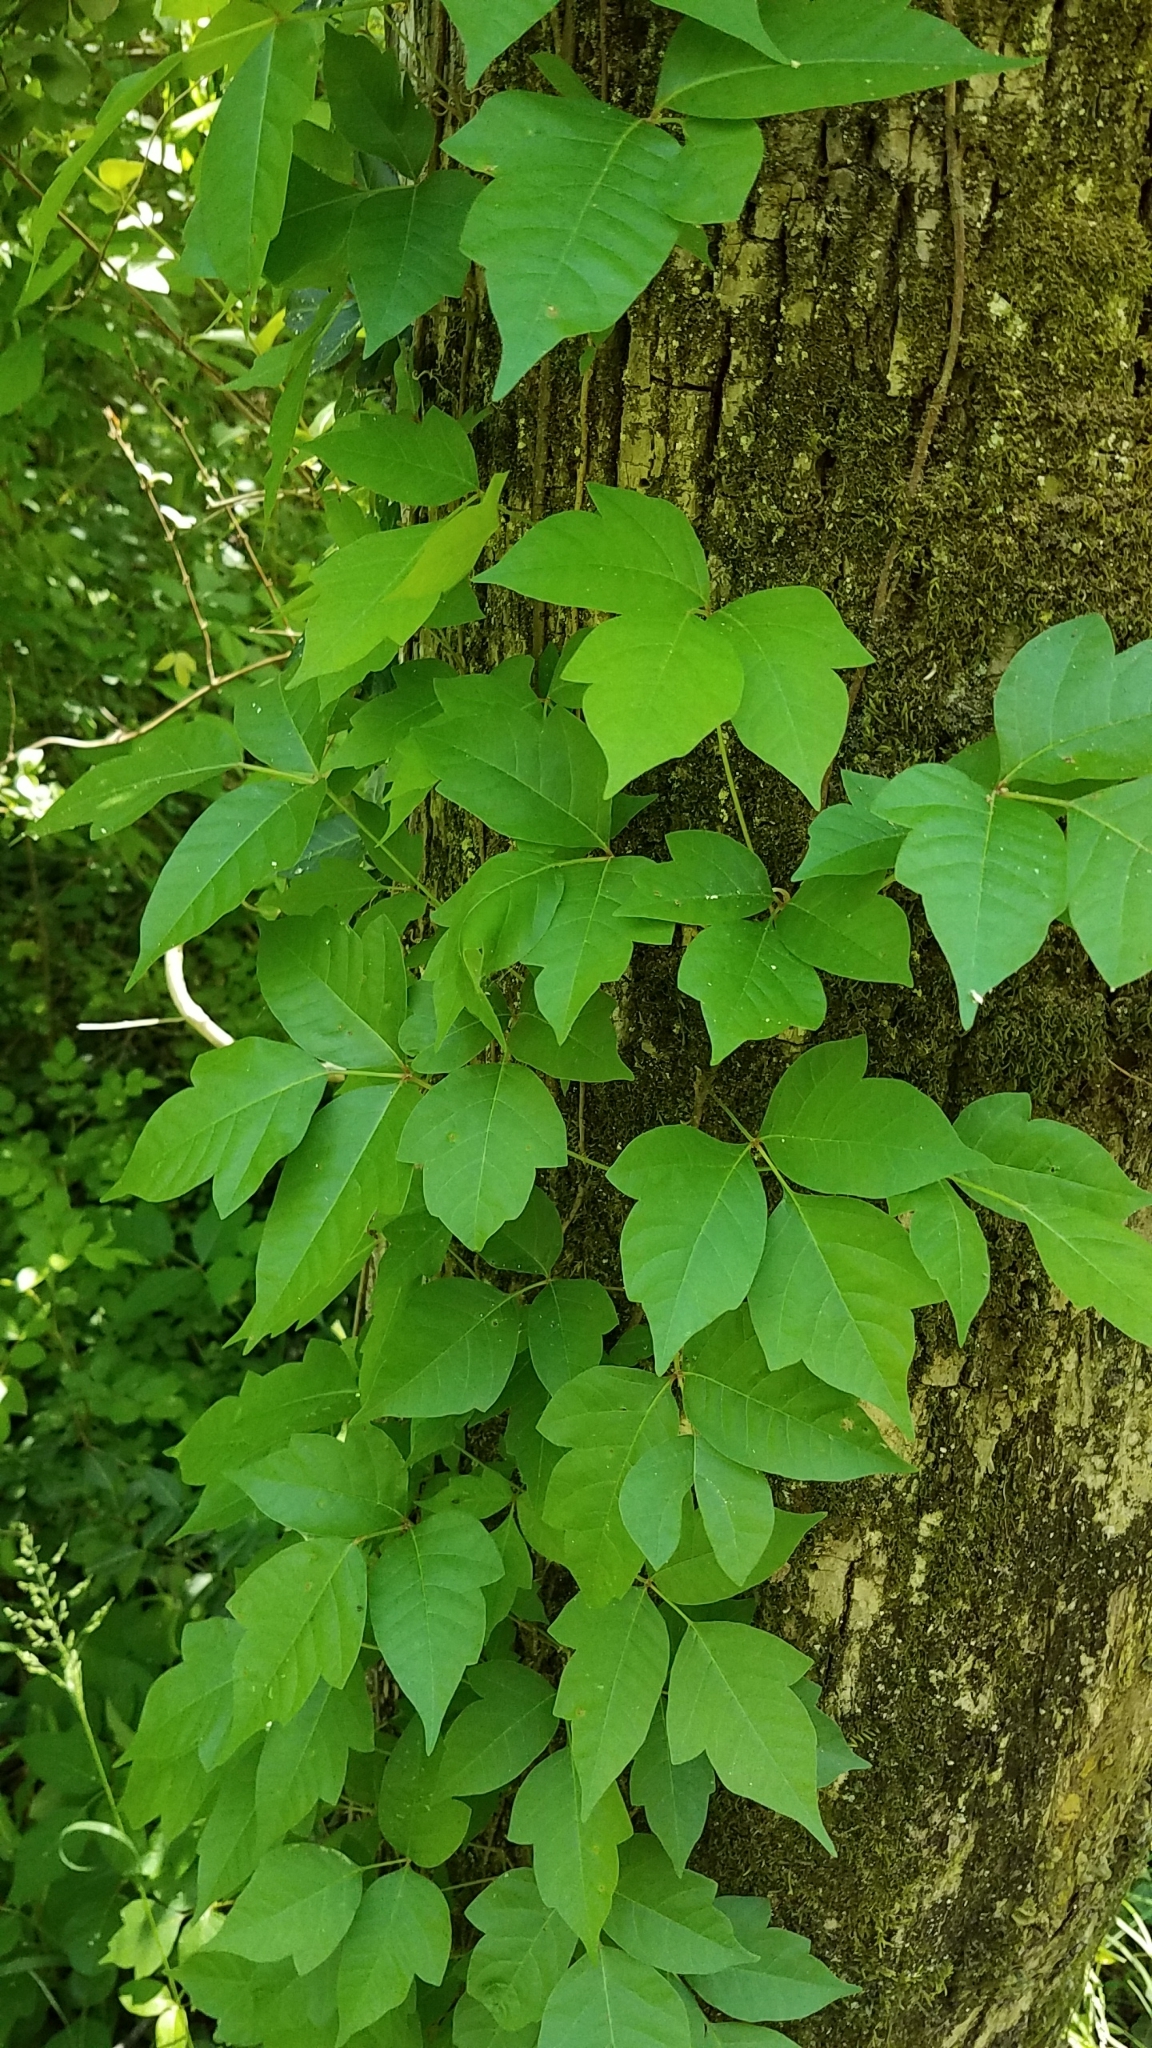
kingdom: Plantae
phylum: Tracheophyta
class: Magnoliopsida
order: Sapindales
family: Anacardiaceae
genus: Toxicodendron
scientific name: Toxicodendron radicans
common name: Poison ivy
